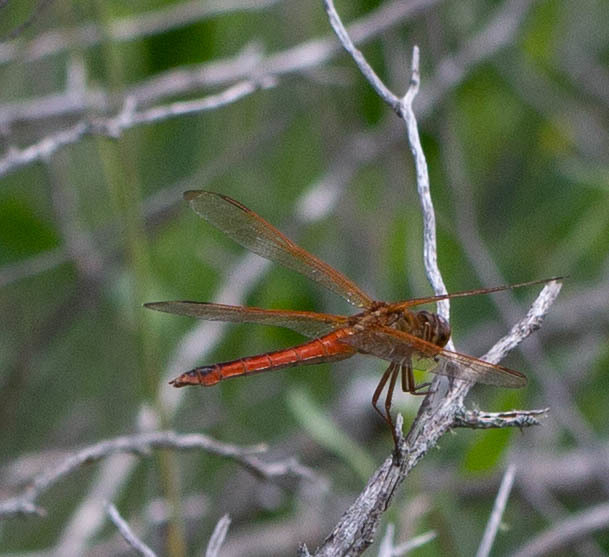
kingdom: Animalia
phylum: Arthropoda
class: Insecta
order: Odonata
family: Libellulidae
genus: Libellula
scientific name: Libellula needhami
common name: Needham's skimmer
